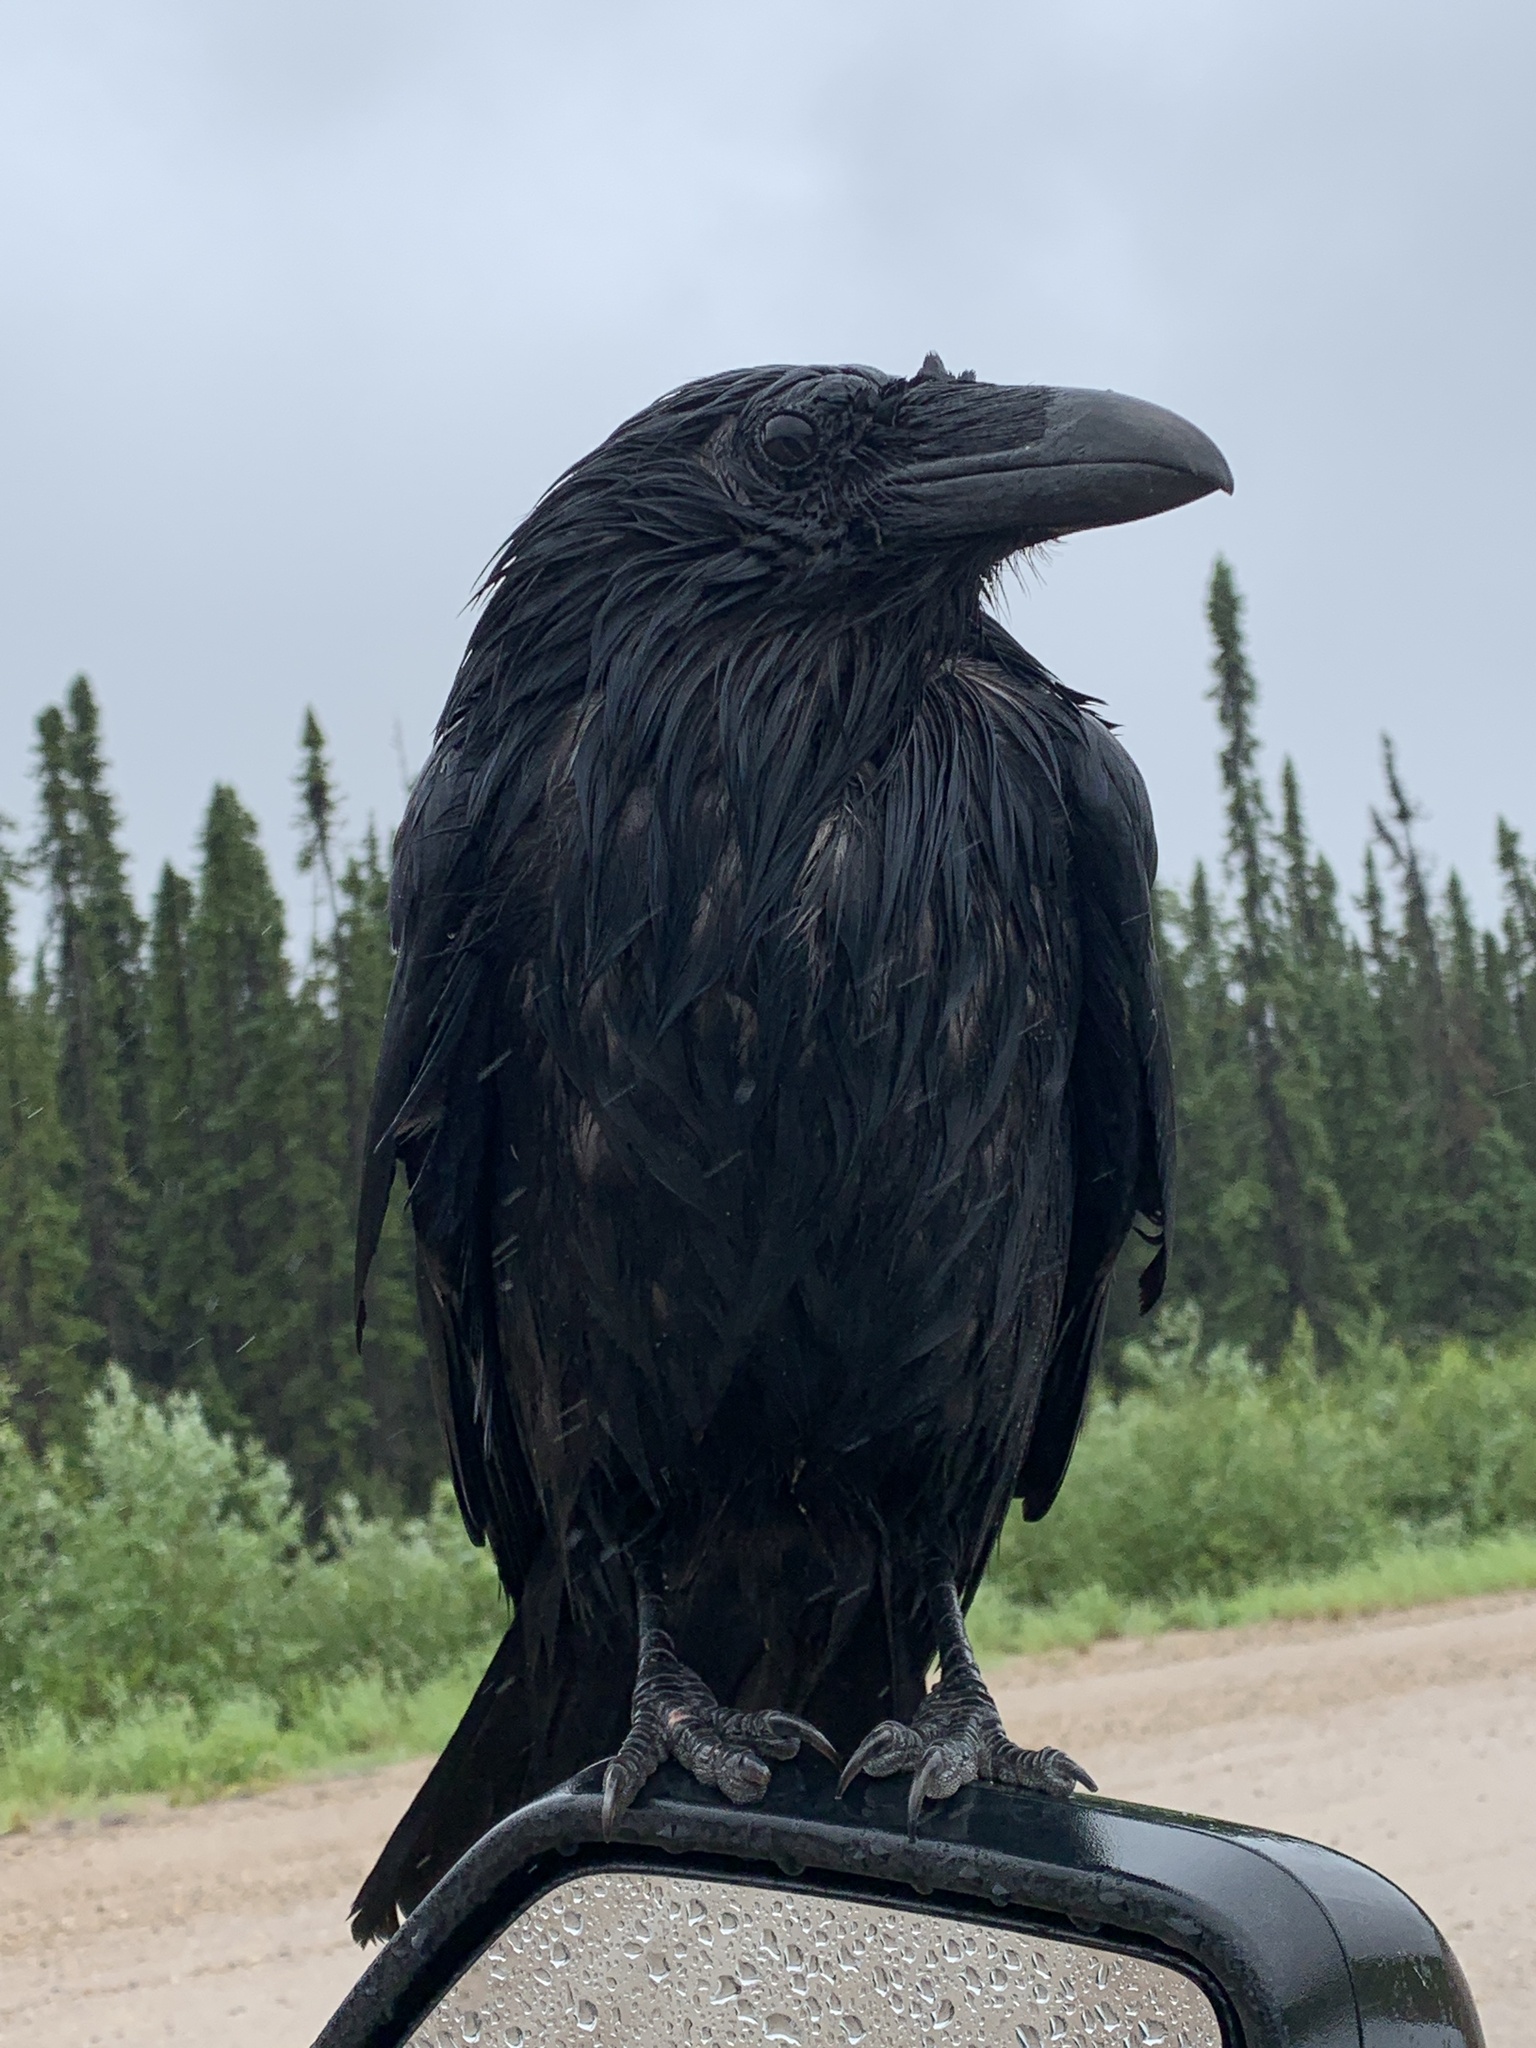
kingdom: Animalia
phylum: Chordata
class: Aves
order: Passeriformes
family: Corvidae
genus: Corvus
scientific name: Corvus corax
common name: Common raven
